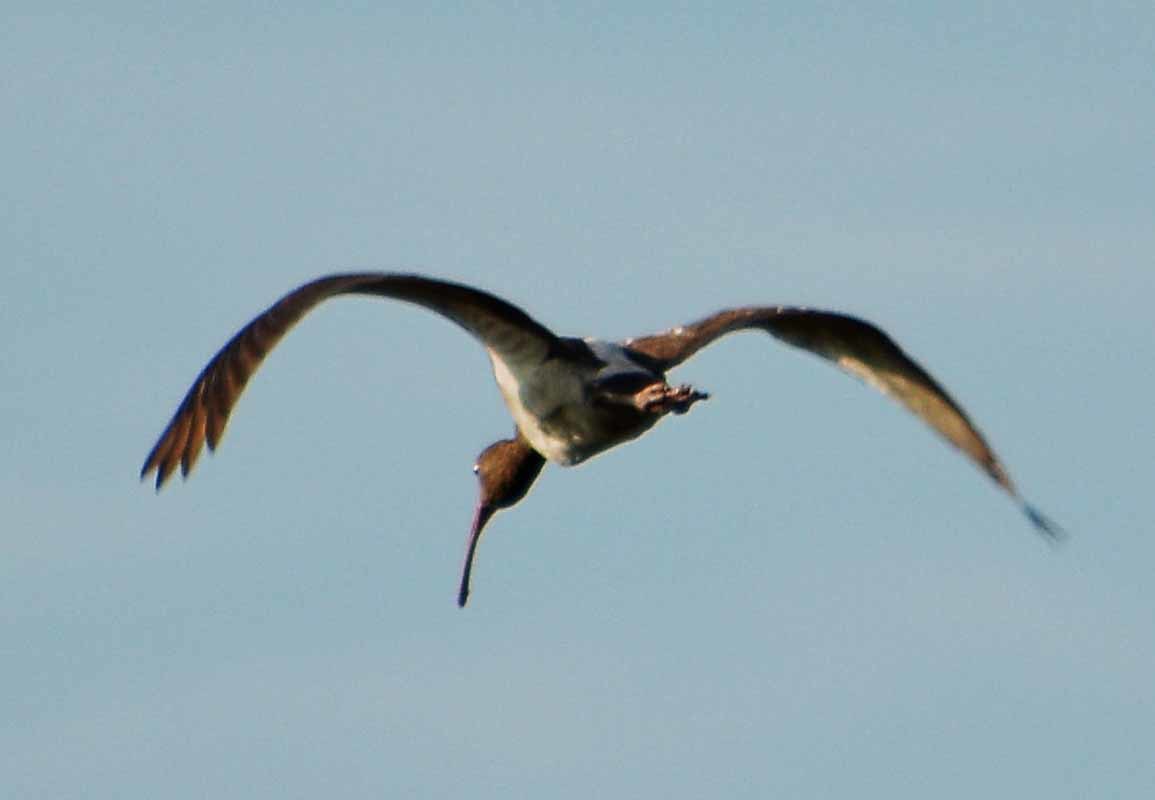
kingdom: Animalia
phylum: Chordata
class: Aves
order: Pelecaniformes
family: Threskiornithidae
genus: Eudocimus
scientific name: Eudocimus albus
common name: White ibis
